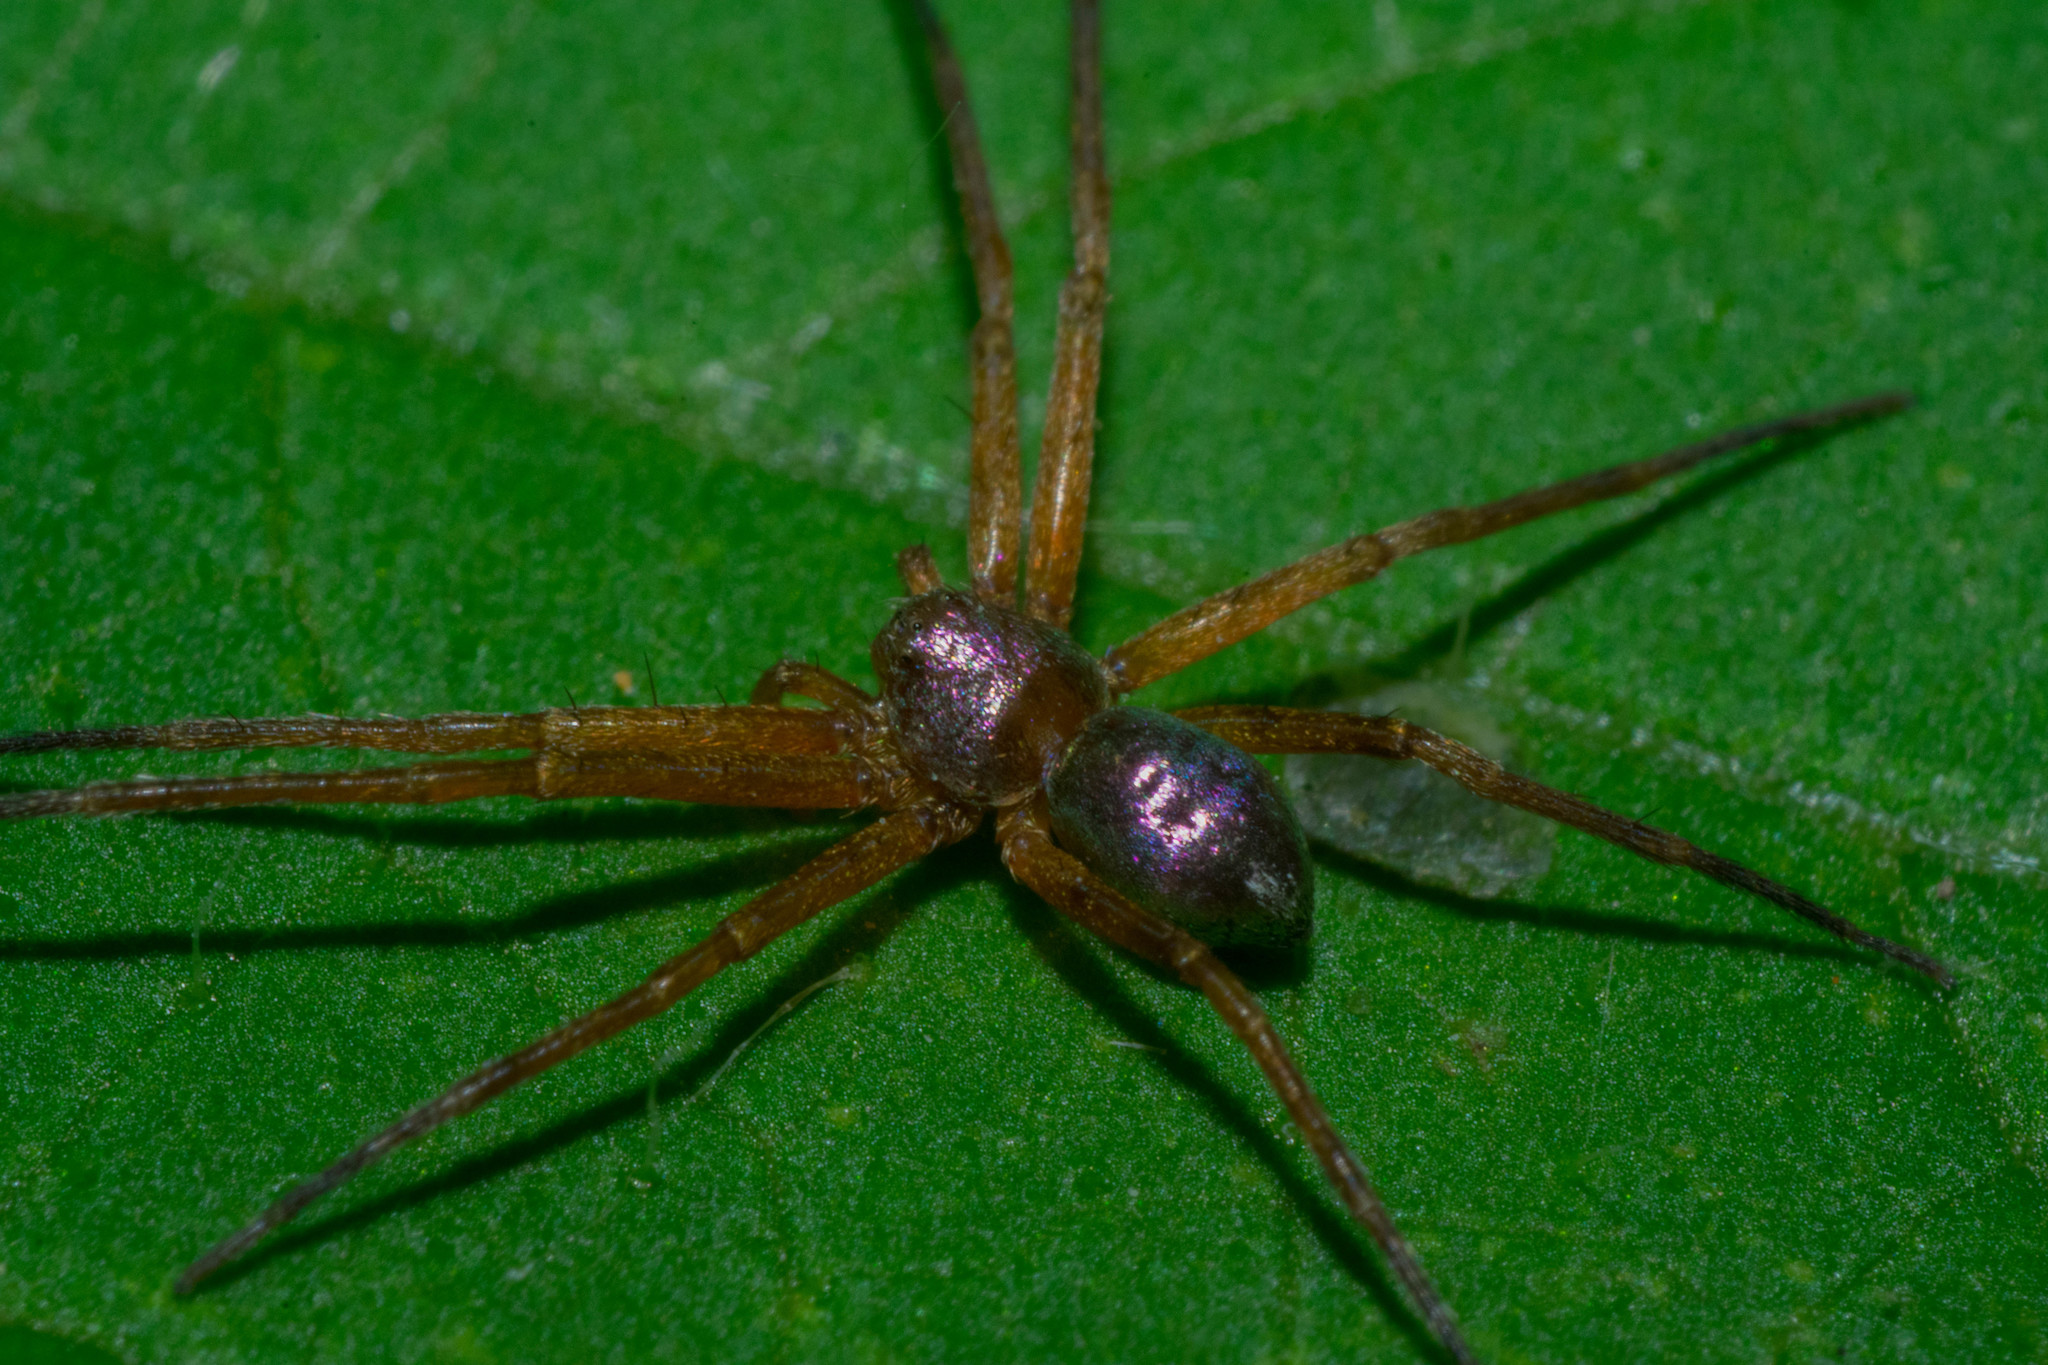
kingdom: Animalia
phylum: Arthropoda
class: Arachnida
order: Araneae
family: Philodromidae
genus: Philodromus
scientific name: Philodromus marxi
